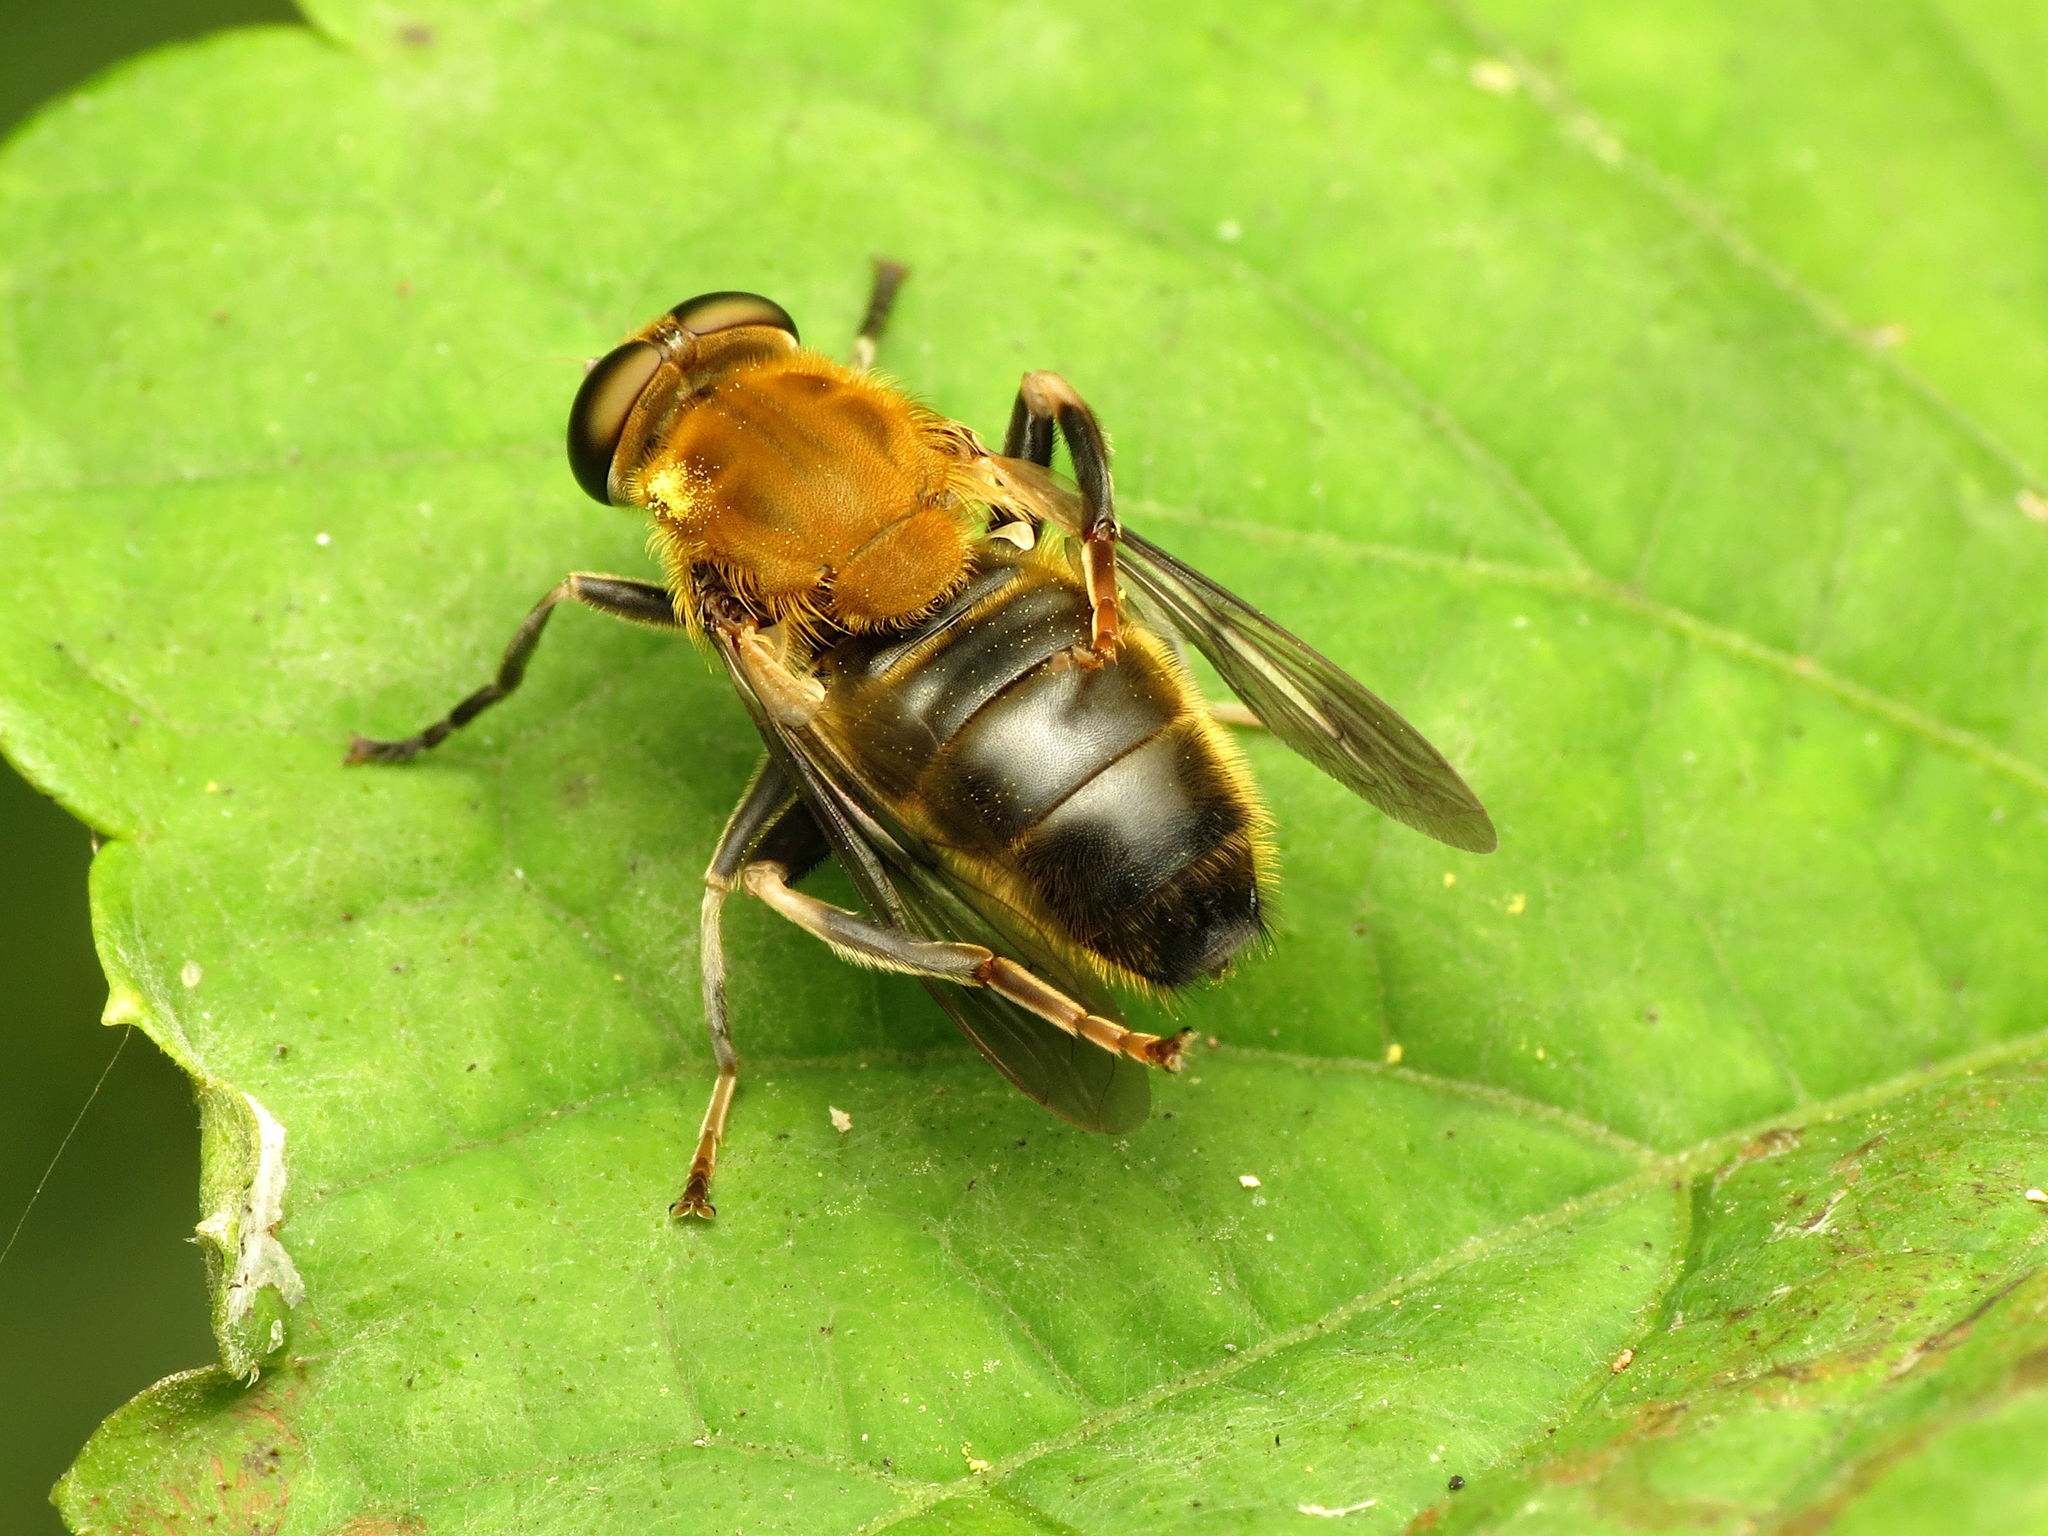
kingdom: Animalia
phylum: Arthropoda
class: Insecta
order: Diptera
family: Syrphidae
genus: Pterallastes
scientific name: Pterallastes thoracicus
